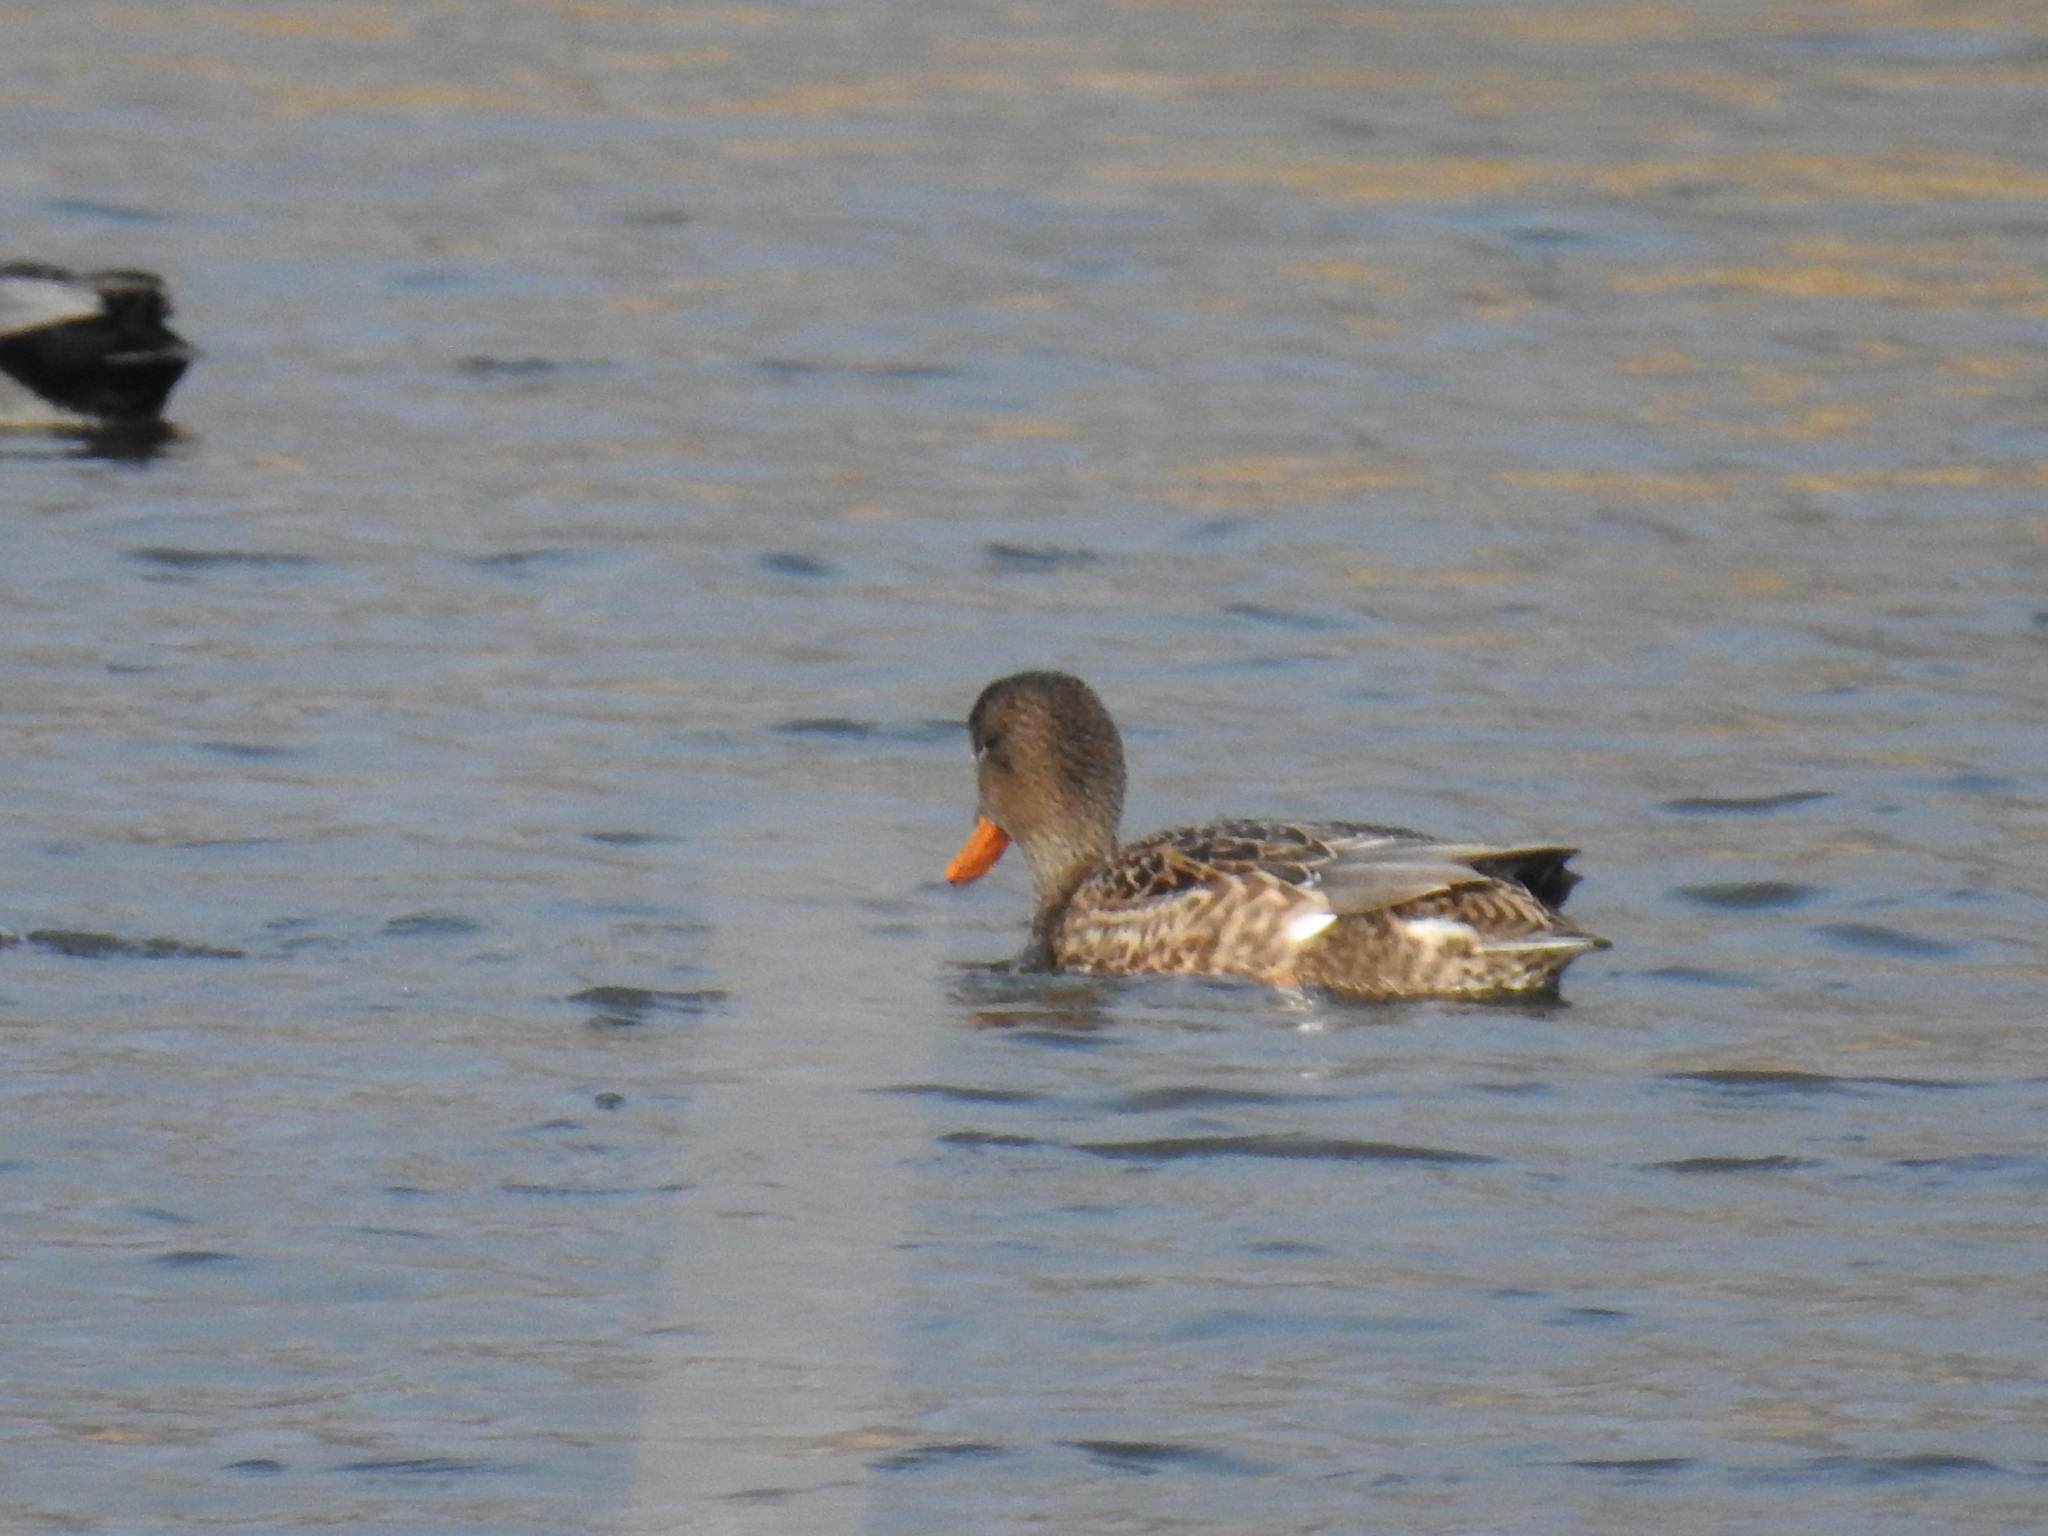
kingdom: Animalia
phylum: Chordata
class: Aves
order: Anseriformes
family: Anatidae
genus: Mareca
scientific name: Mareca strepera
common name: Gadwall
